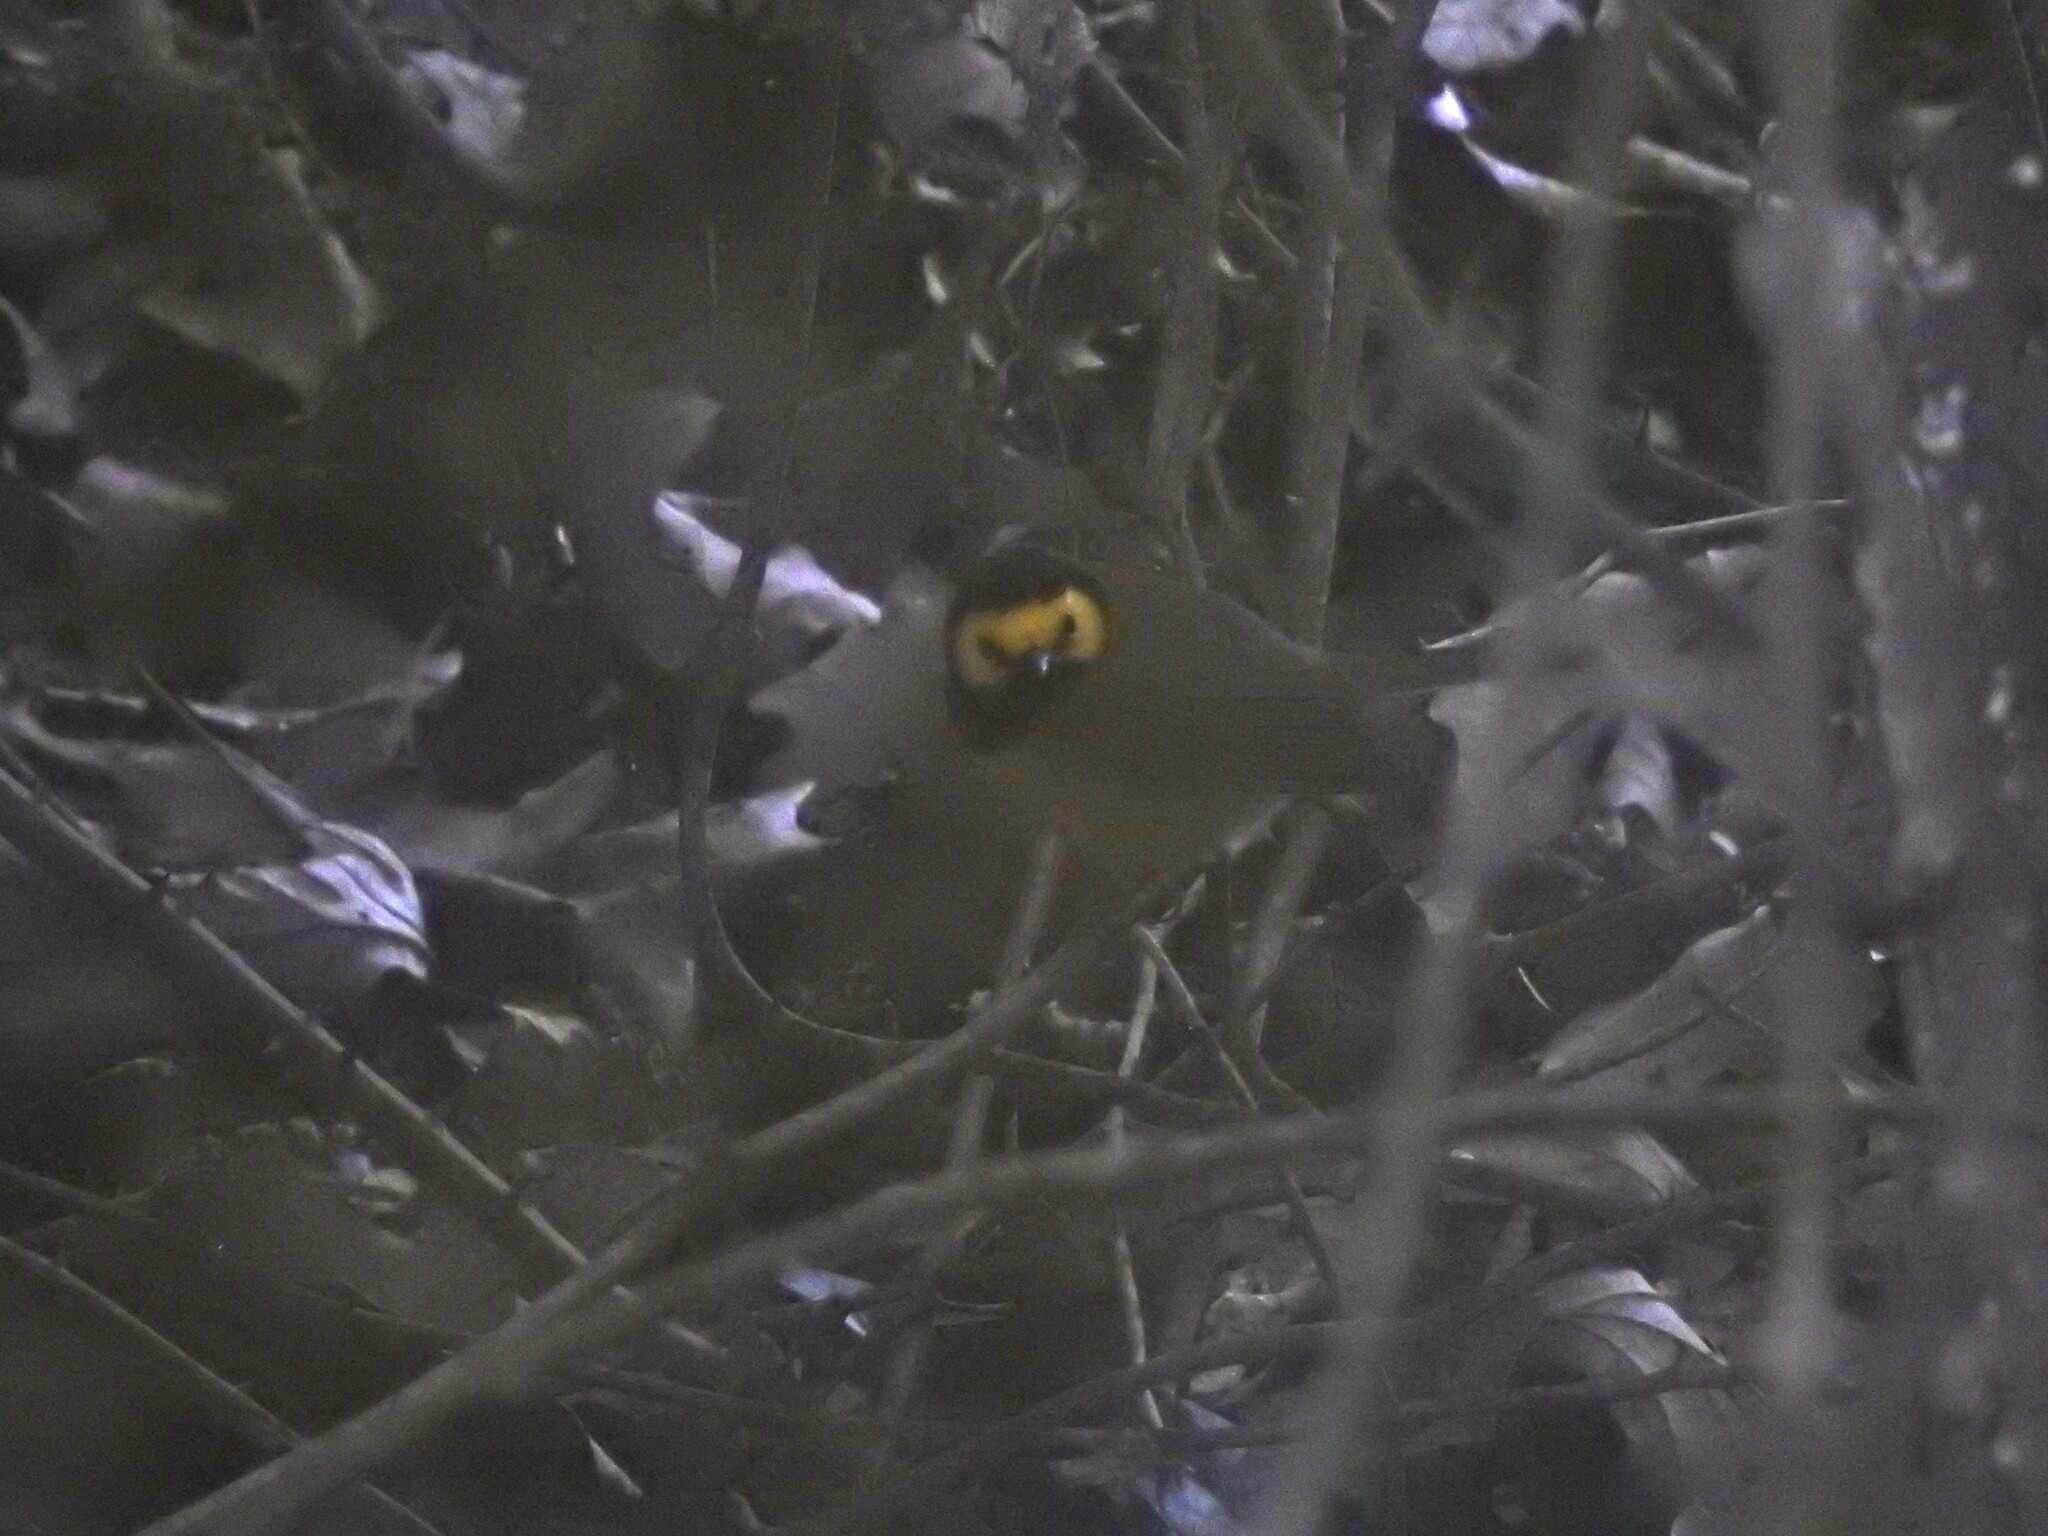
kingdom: Animalia
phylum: Chordata
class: Aves
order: Passeriformes
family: Parulidae
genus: Setophaga
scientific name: Setophaga citrina
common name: Hooded warbler
